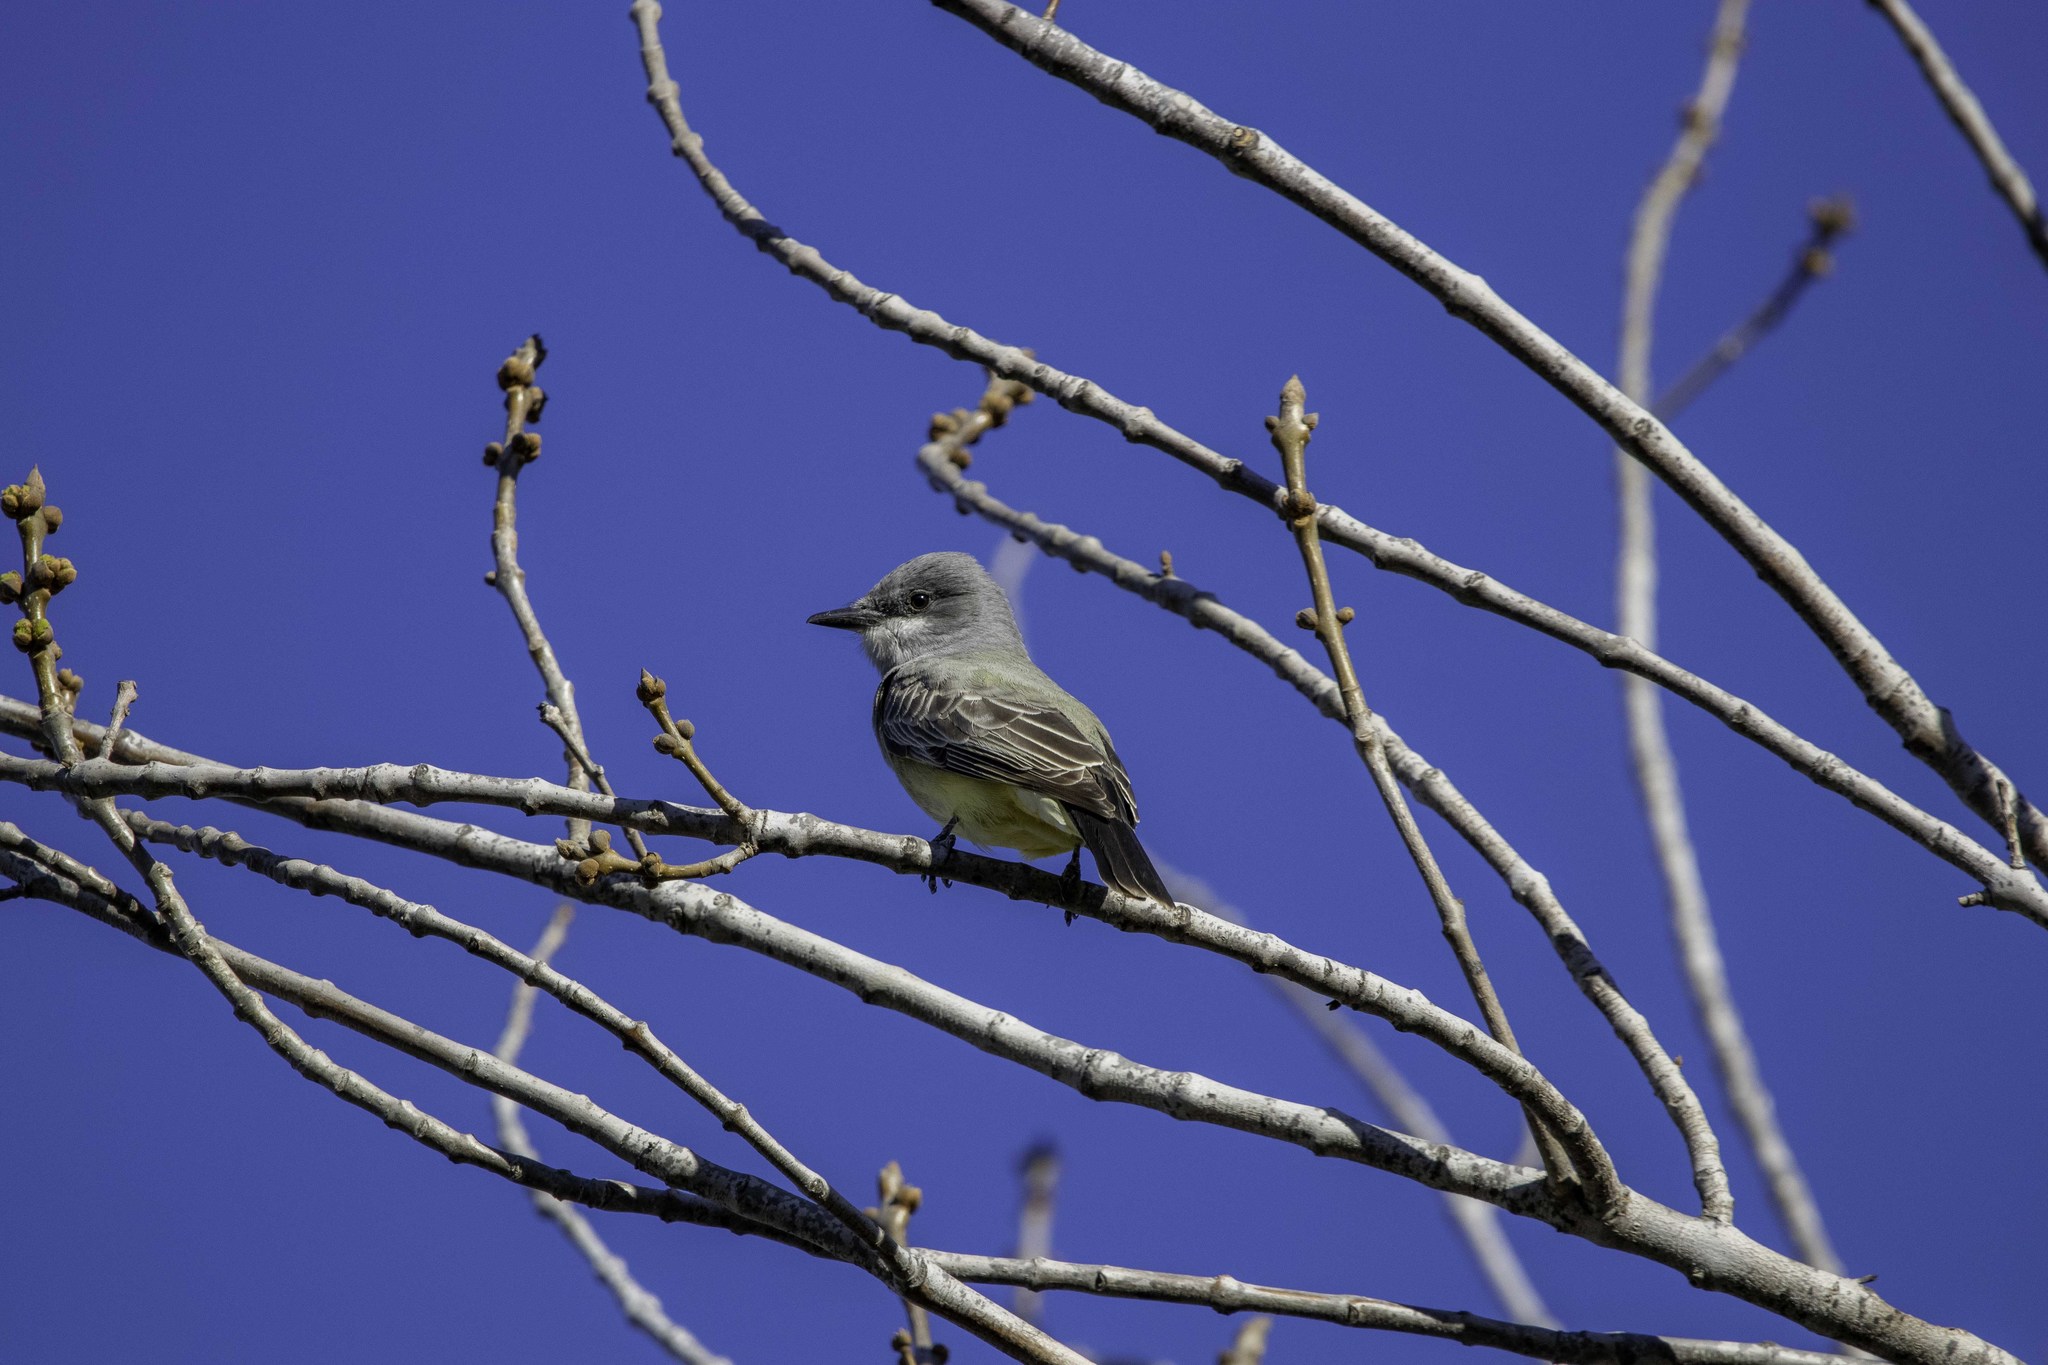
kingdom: Animalia
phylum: Chordata
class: Aves
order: Passeriformes
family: Tyrannidae
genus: Tyrannus
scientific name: Tyrannus vociferans
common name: Cassin's kingbird
